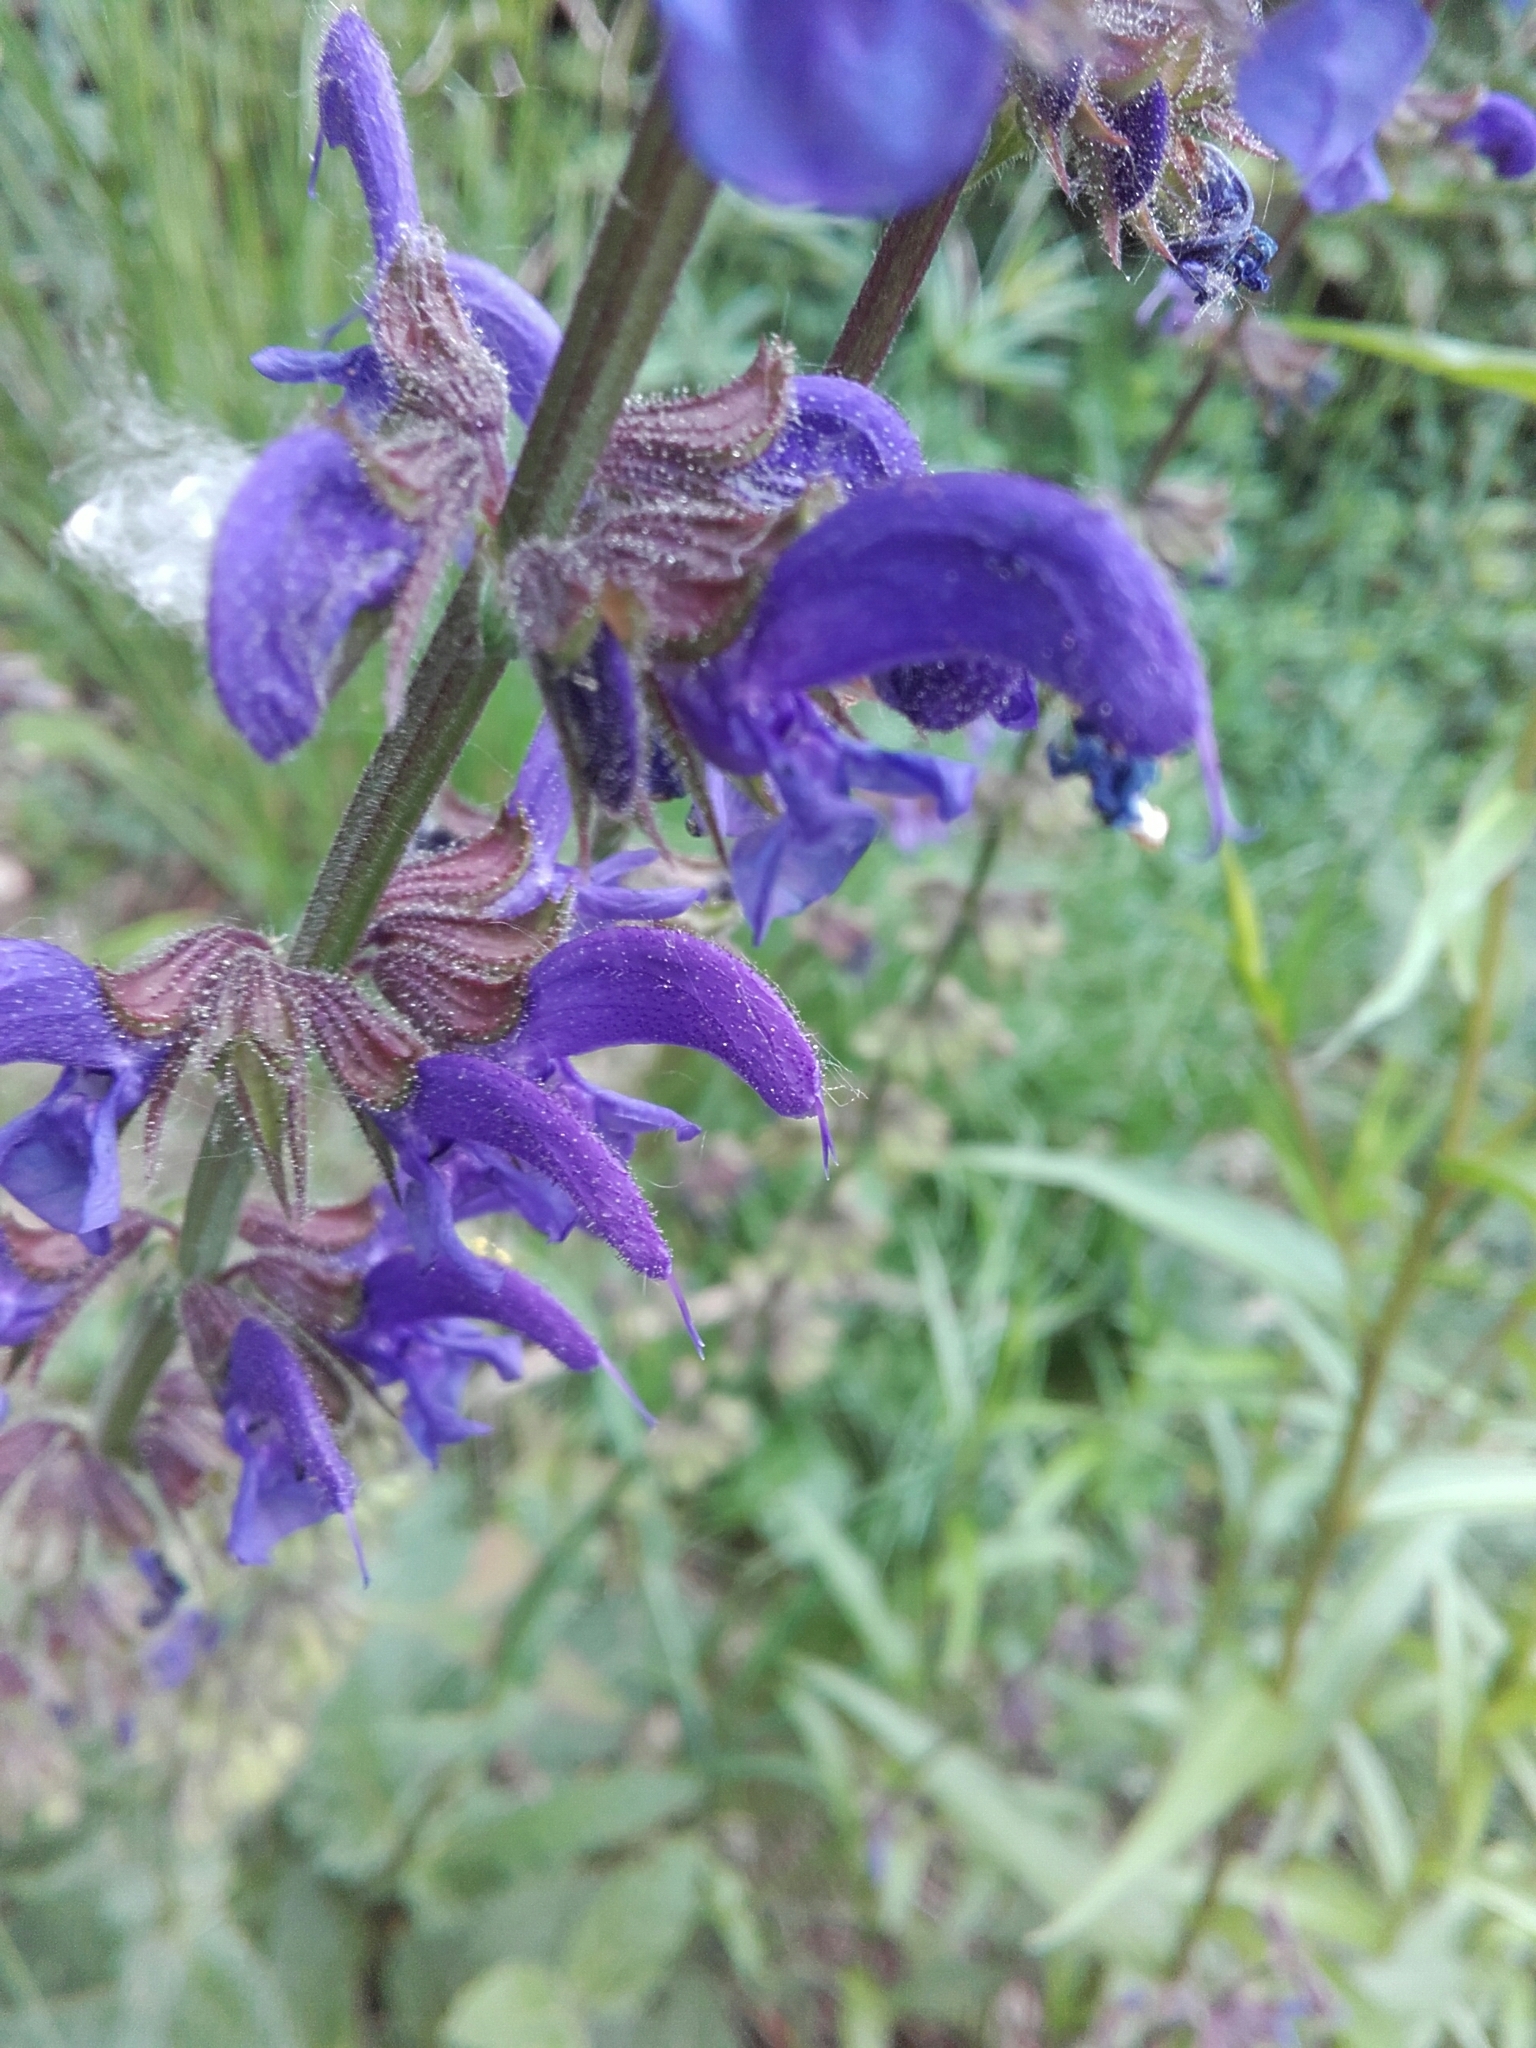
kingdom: Plantae
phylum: Tracheophyta
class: Magnoliopsida
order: Lamiales
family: Lamiaceae
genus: Salvia
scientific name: Salvia pratensis
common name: Meadow sage
